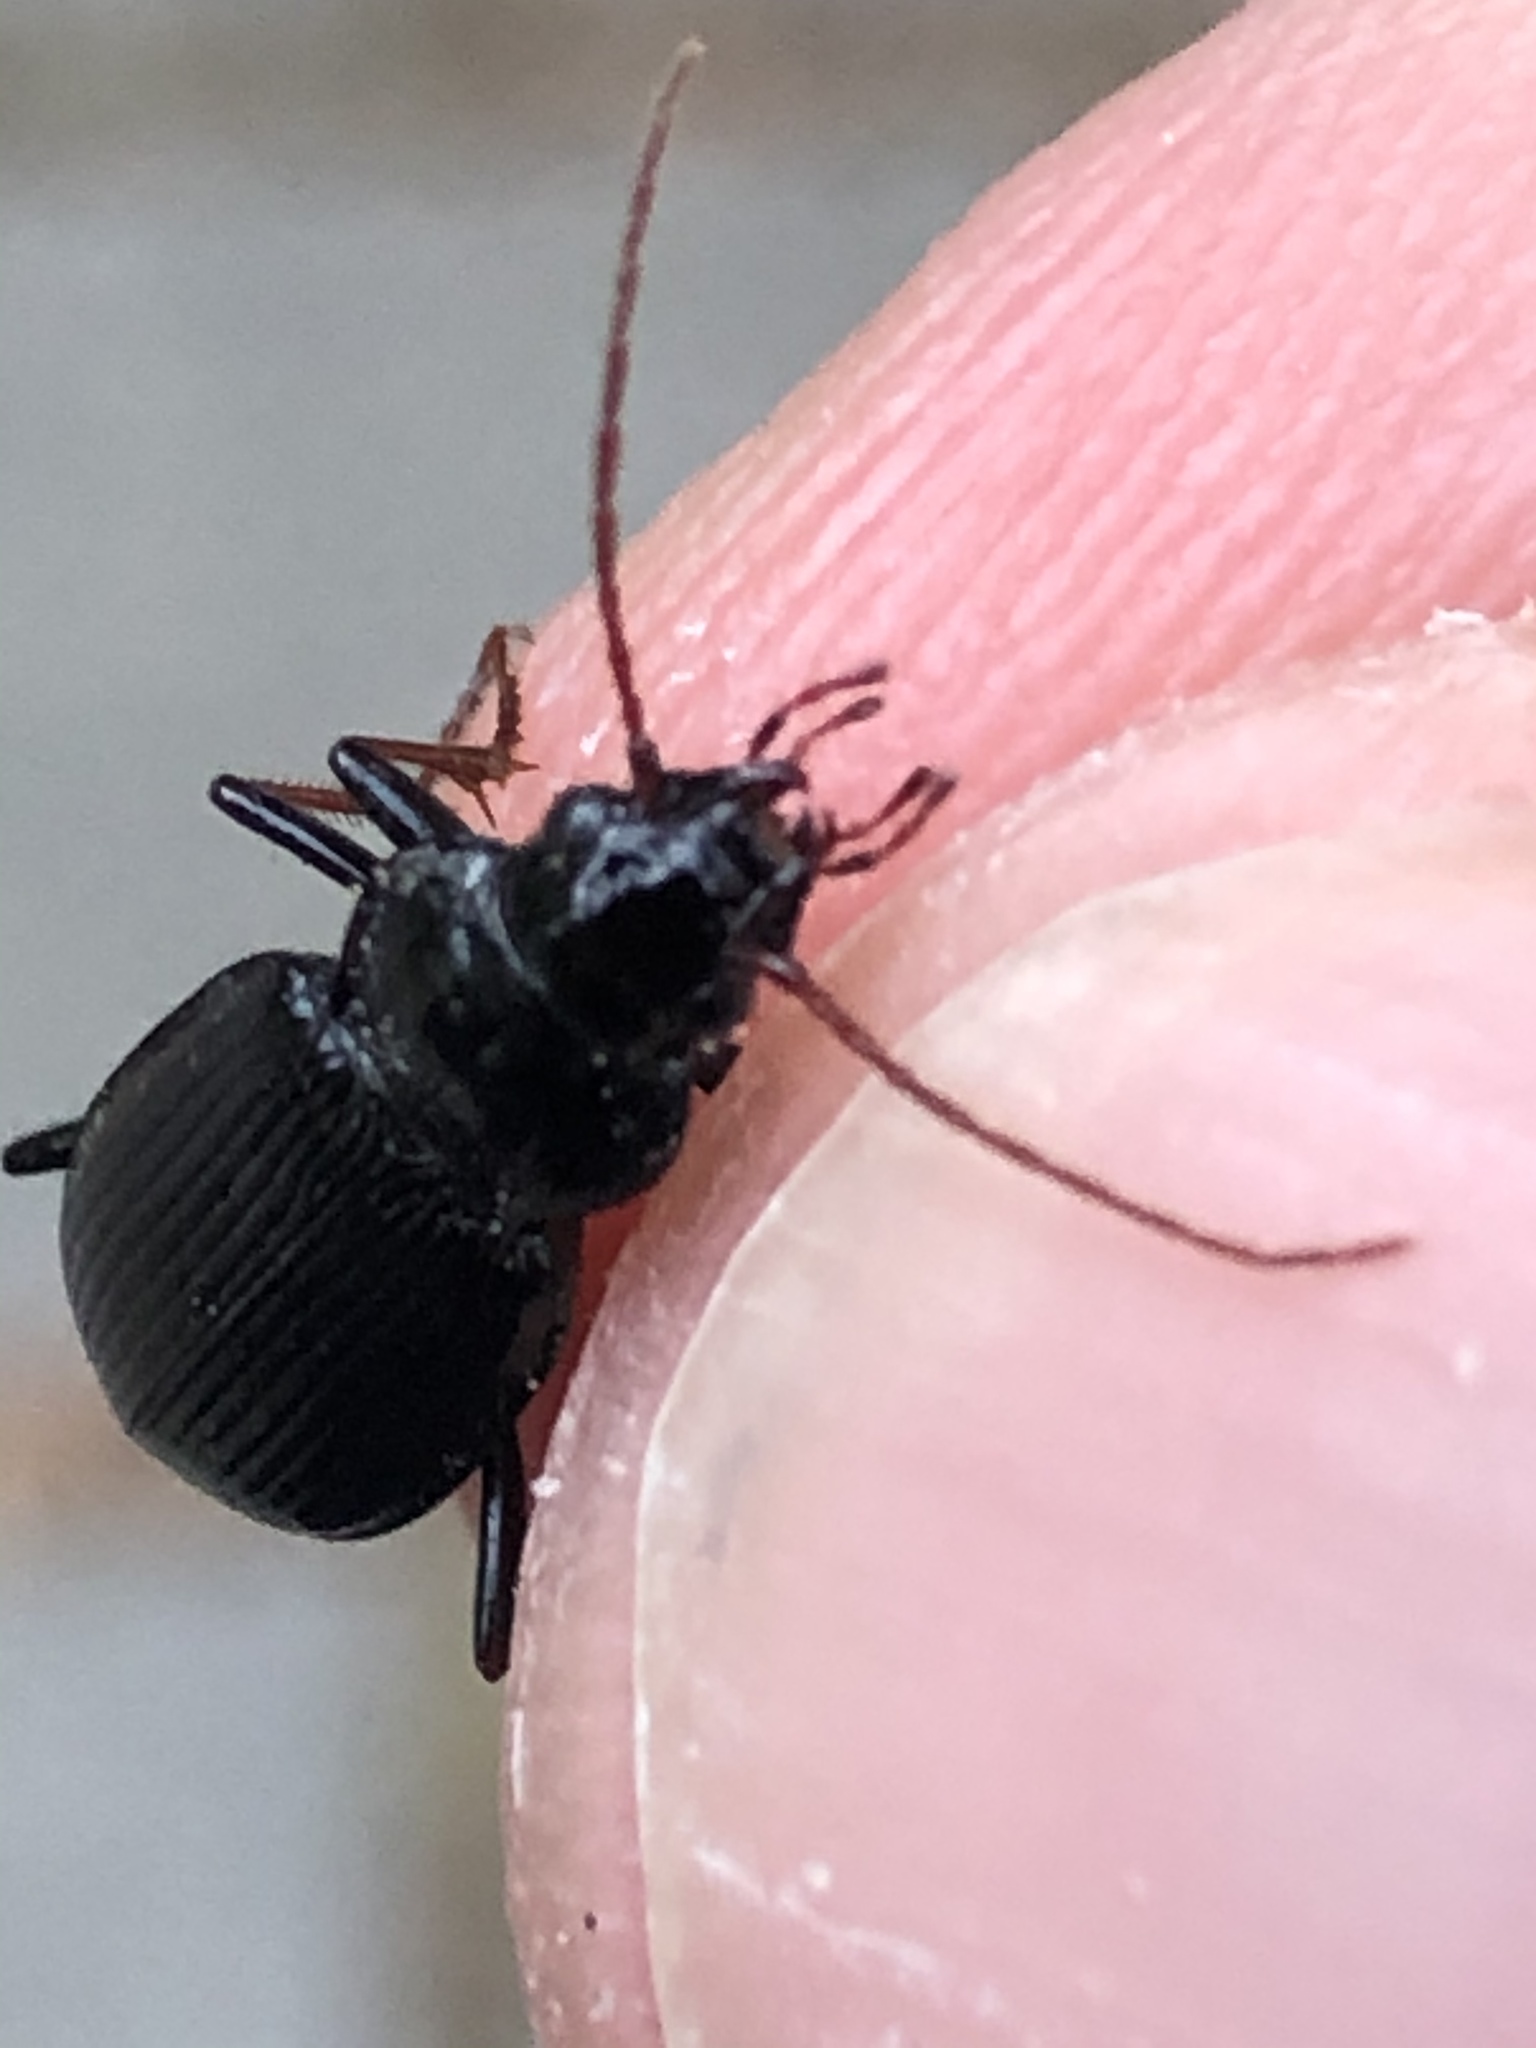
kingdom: Animalia
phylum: Arthropoda
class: Insecta
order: Coleoptera
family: Carabidae
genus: Nebria
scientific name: Nebria brevicollis
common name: Short-necked gazelle beetle
